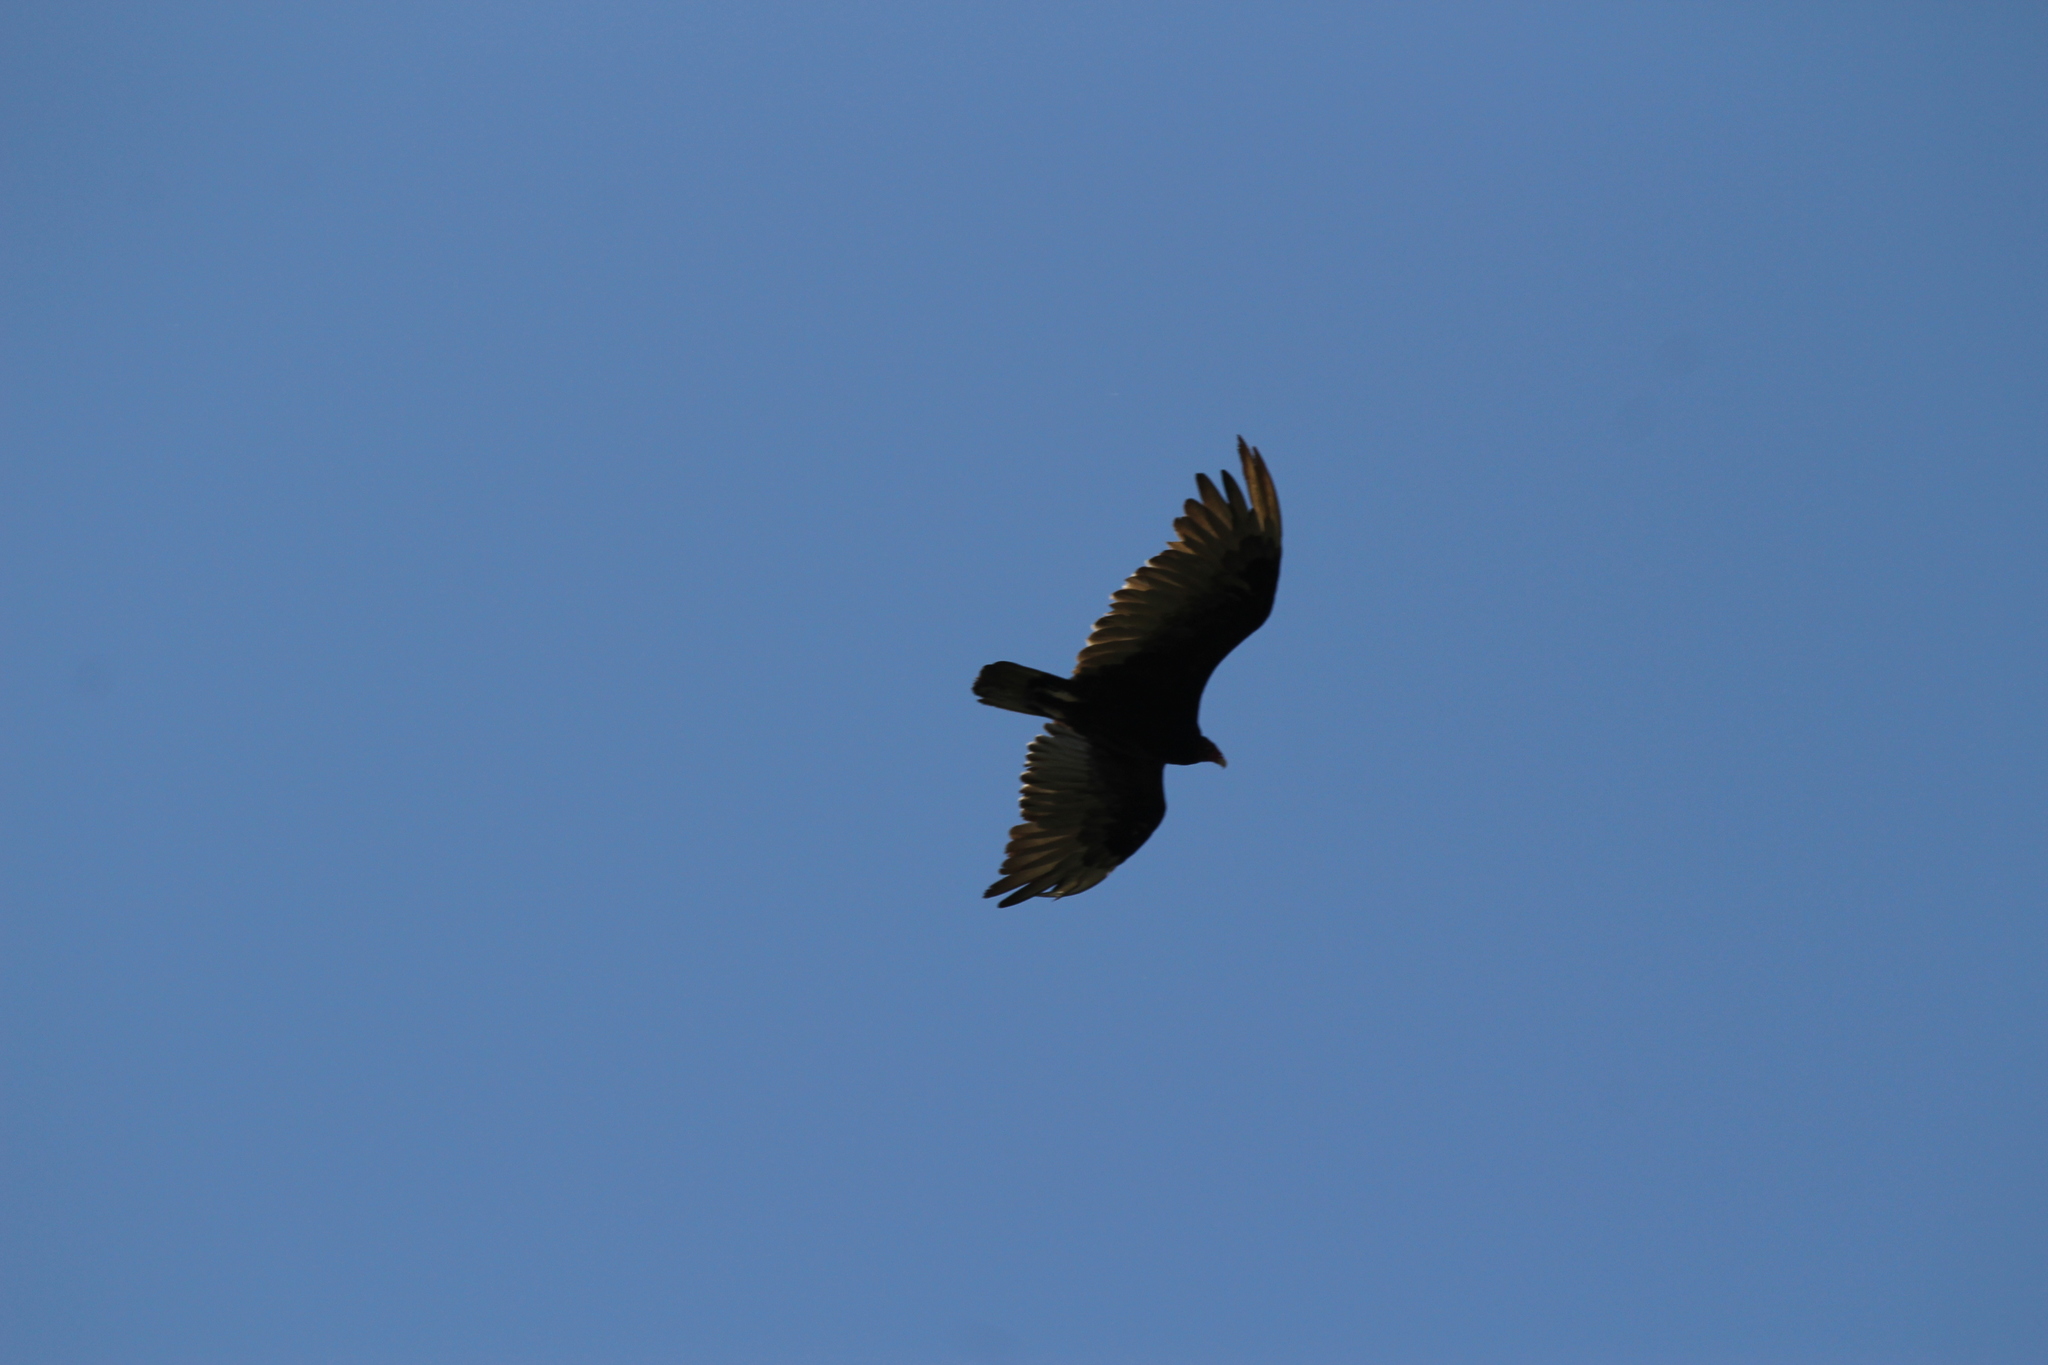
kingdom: Animalia
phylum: Chordata
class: Aves
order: Accipitriformes
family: Cathartidae
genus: Cathartes
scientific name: Cathartes aura
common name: Turkey vulture
